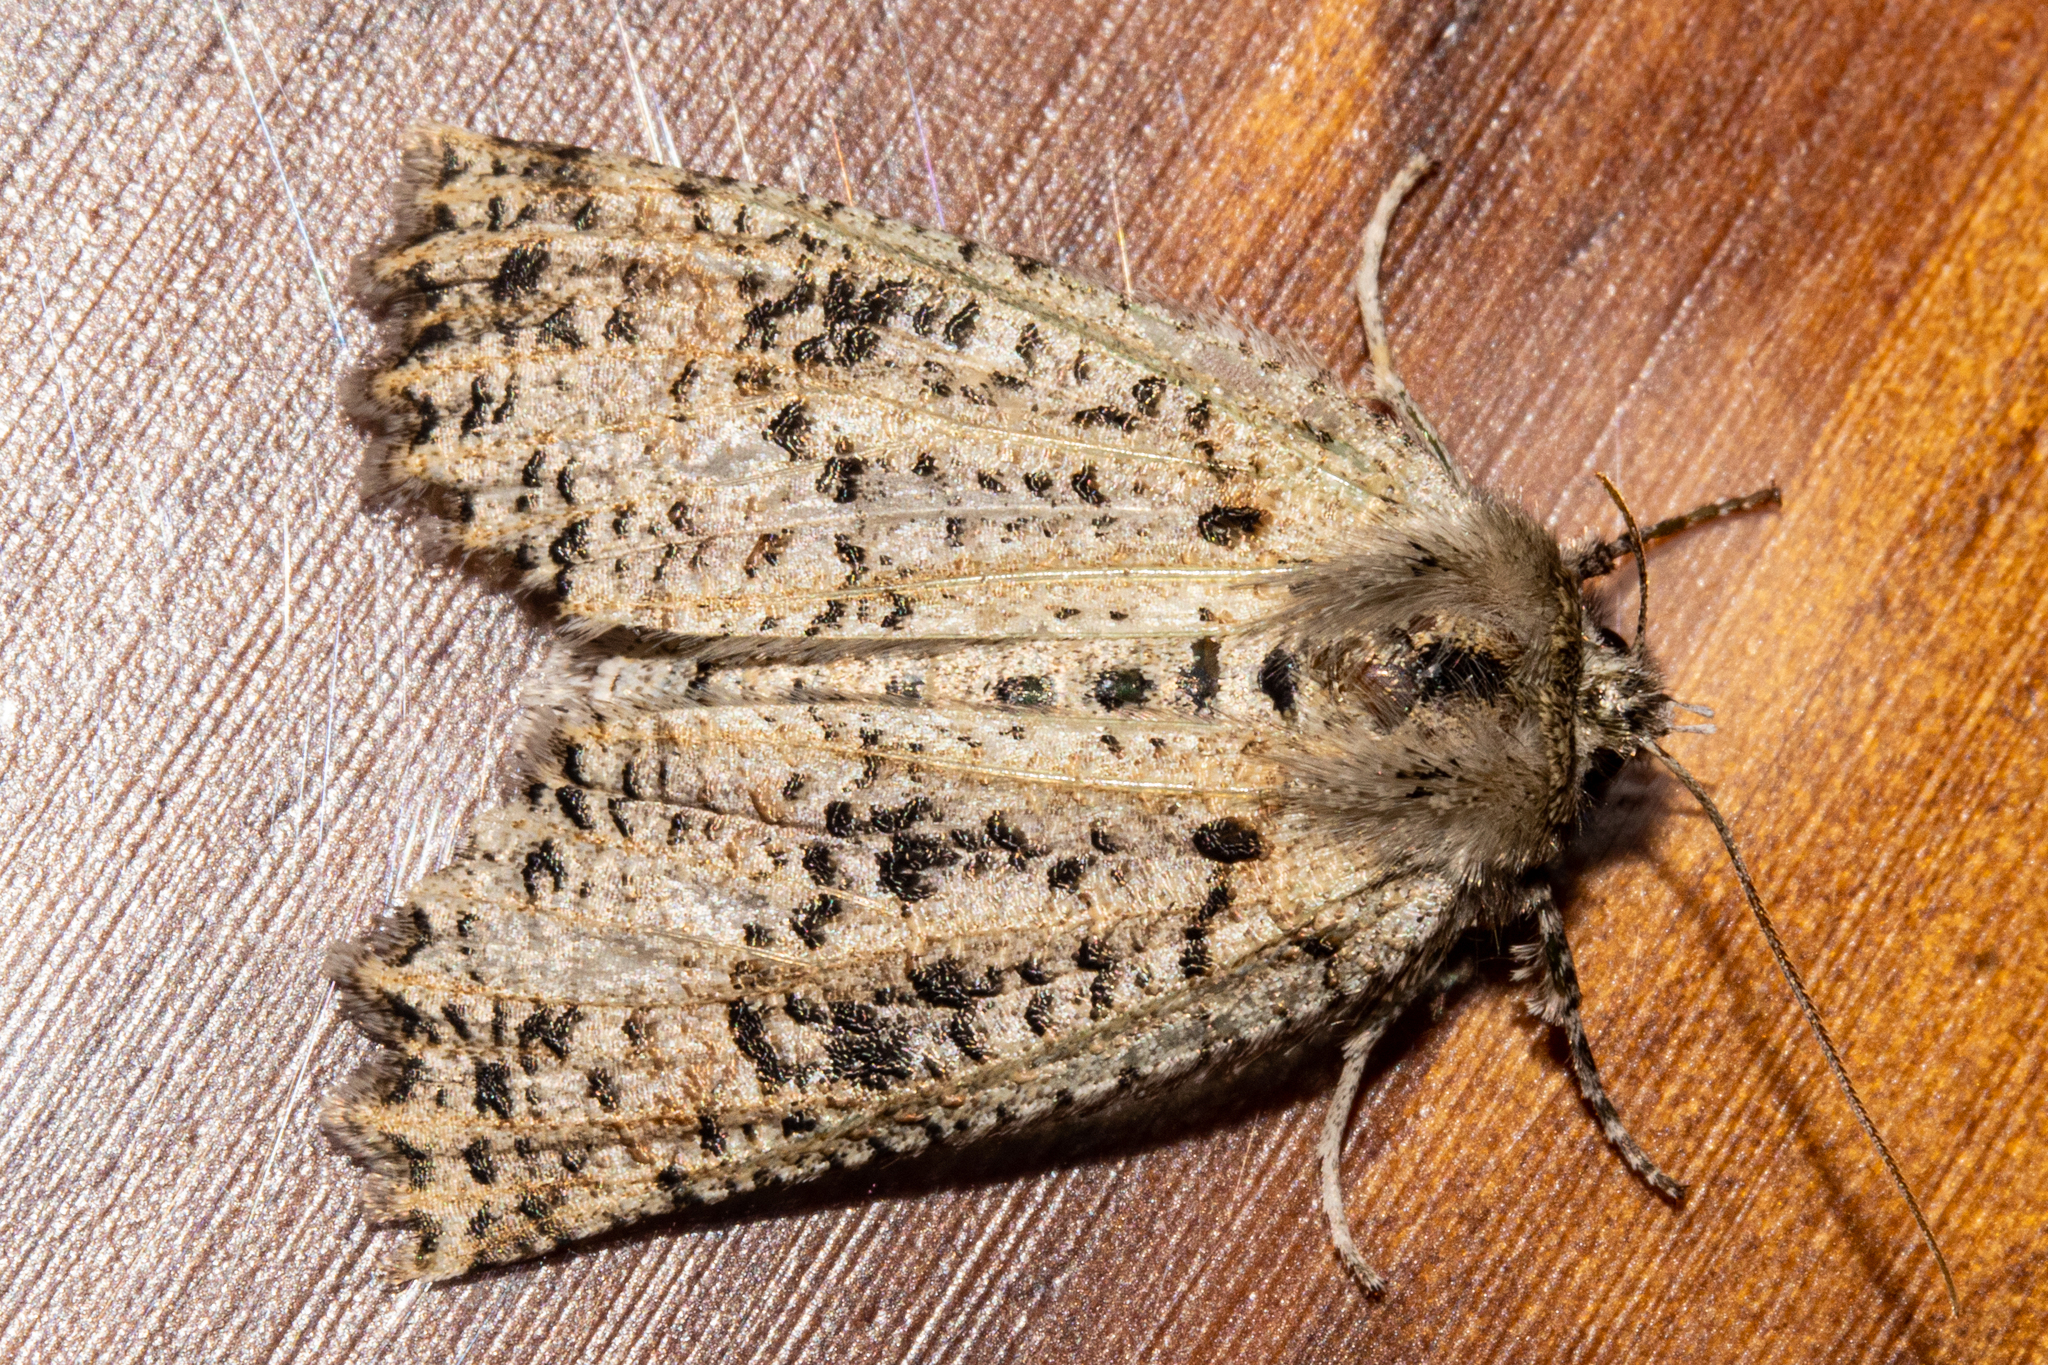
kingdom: Animalia
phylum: Arthropoda
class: Insecta
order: Lepidoptera
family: Geometridae
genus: Declana
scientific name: Declana floccosa
